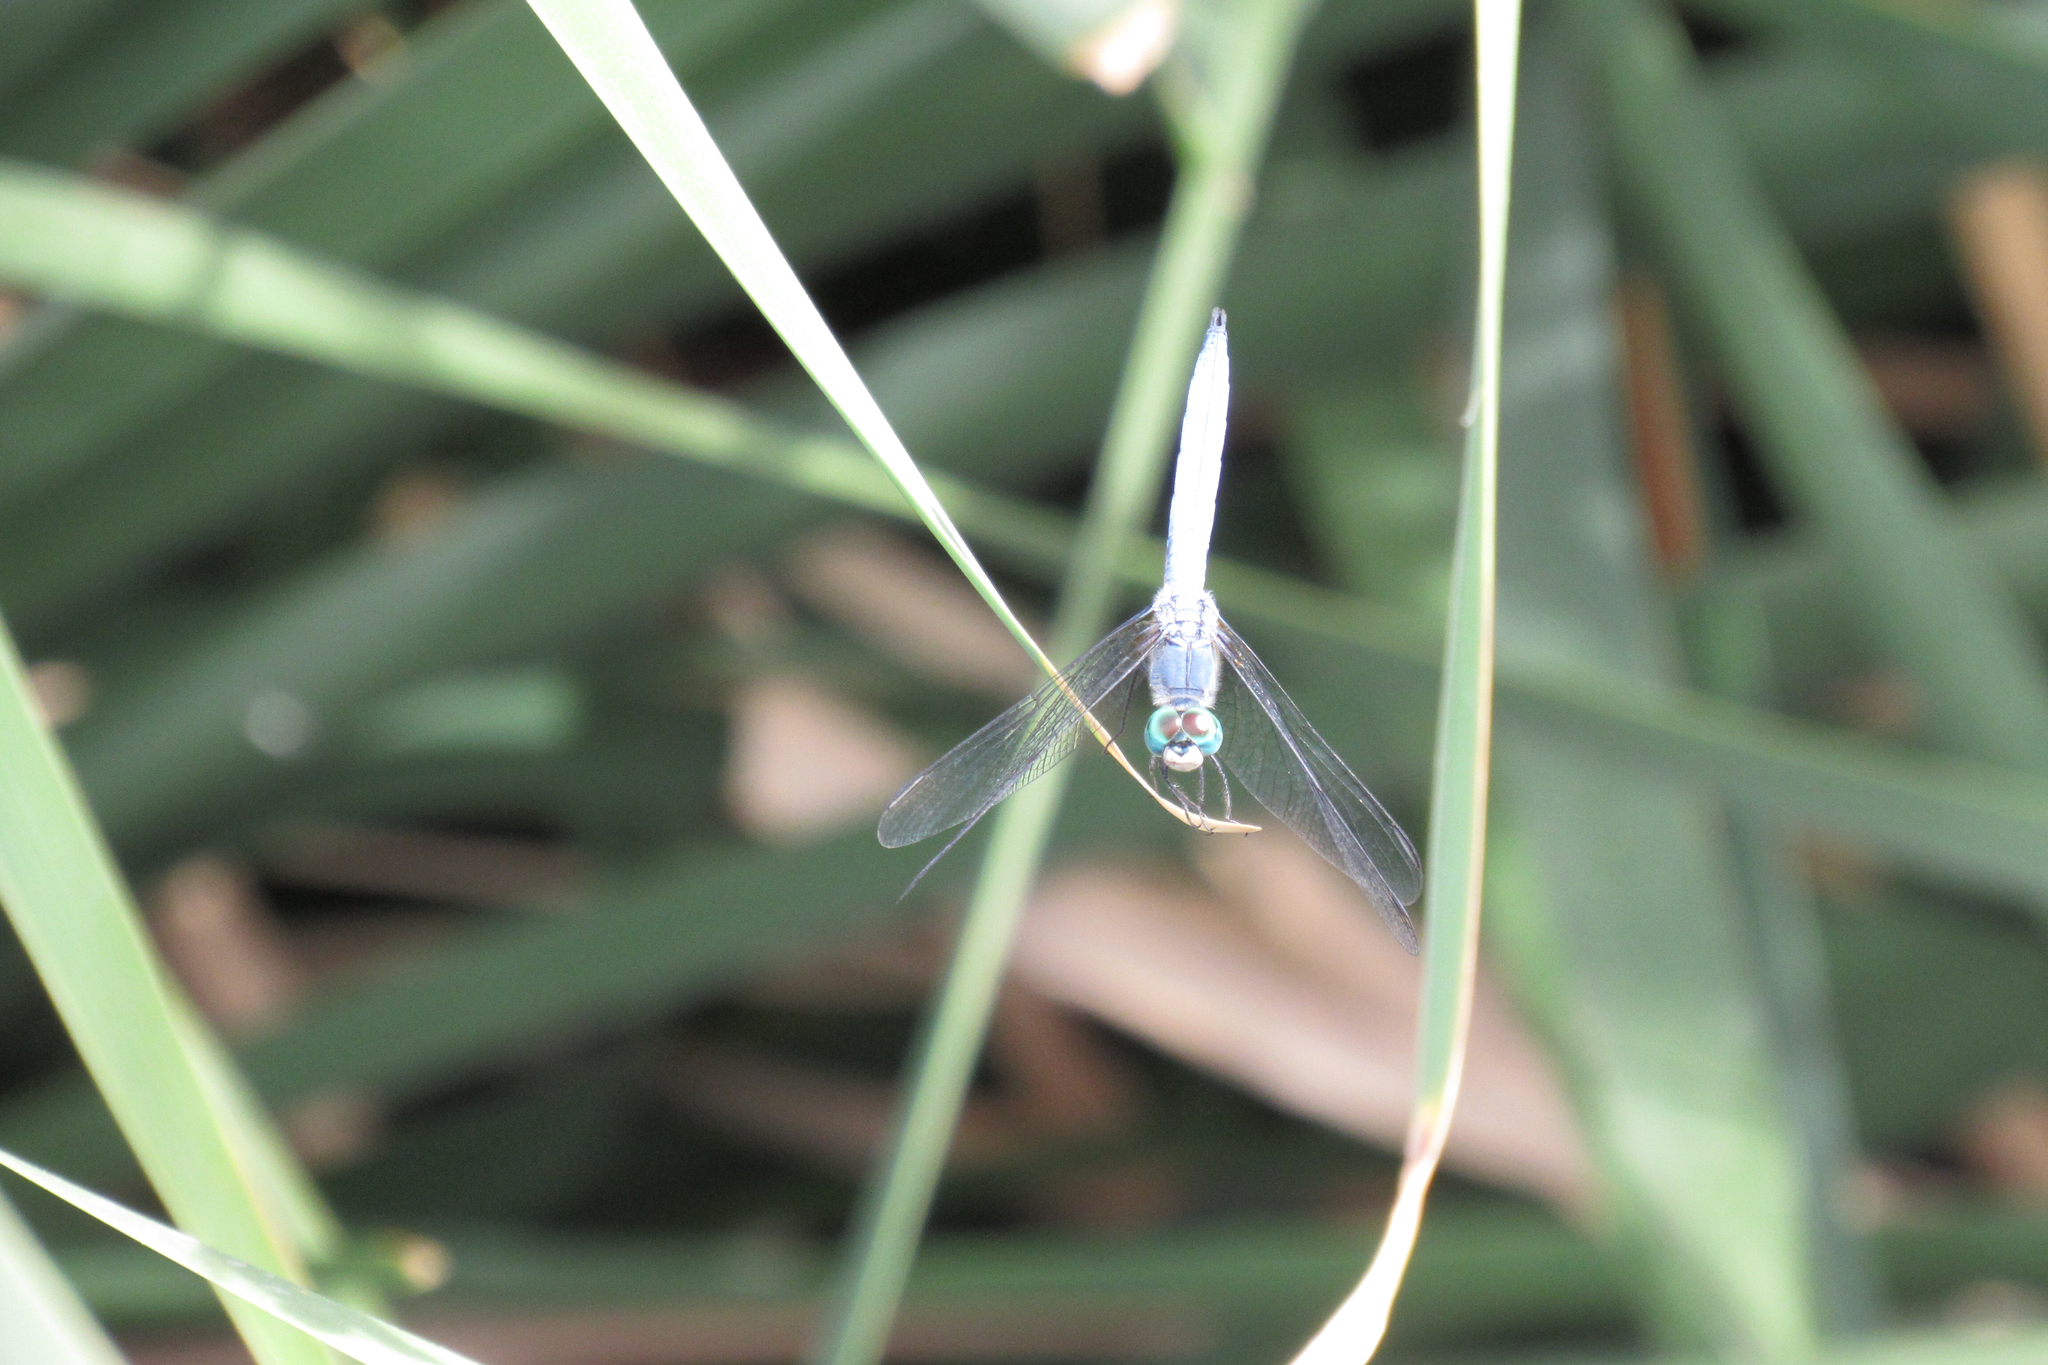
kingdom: Animalia
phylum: Arthropoda
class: Insecta
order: Odonata
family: Libellulidae
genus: Pachydiplax
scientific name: Pachydiplax longipennis
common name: Blue dasher
